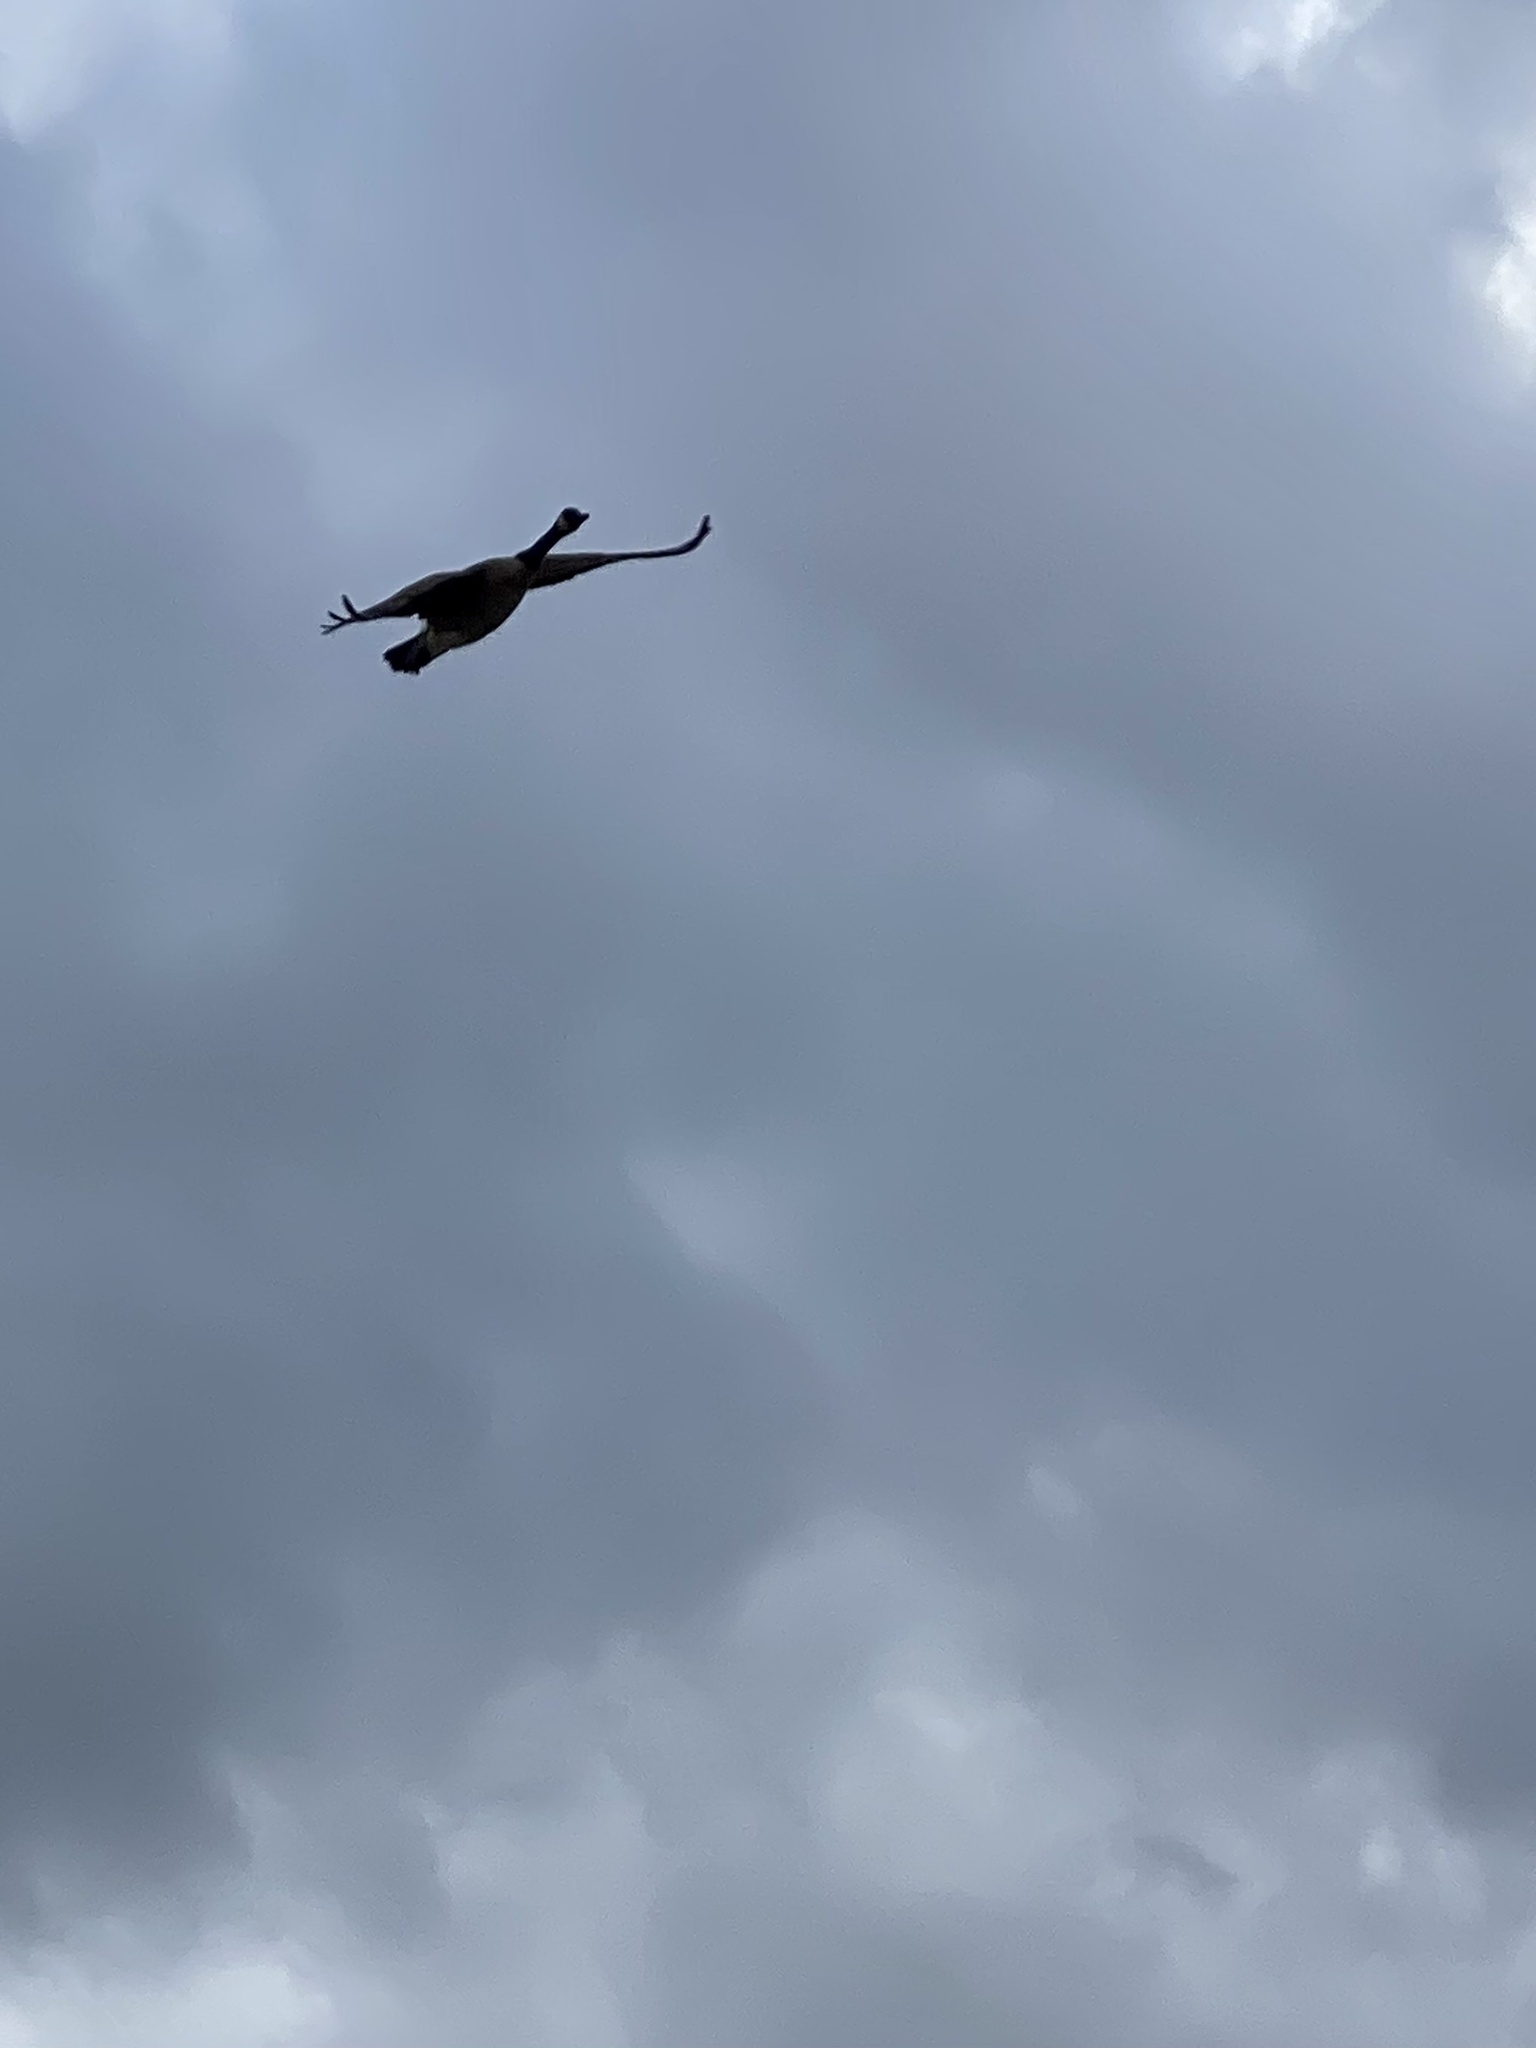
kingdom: Animalia
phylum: Chordata
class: Aves
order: Anseriformes
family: Anatidae
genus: Branta
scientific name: Branta canadensis
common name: Canada goose
